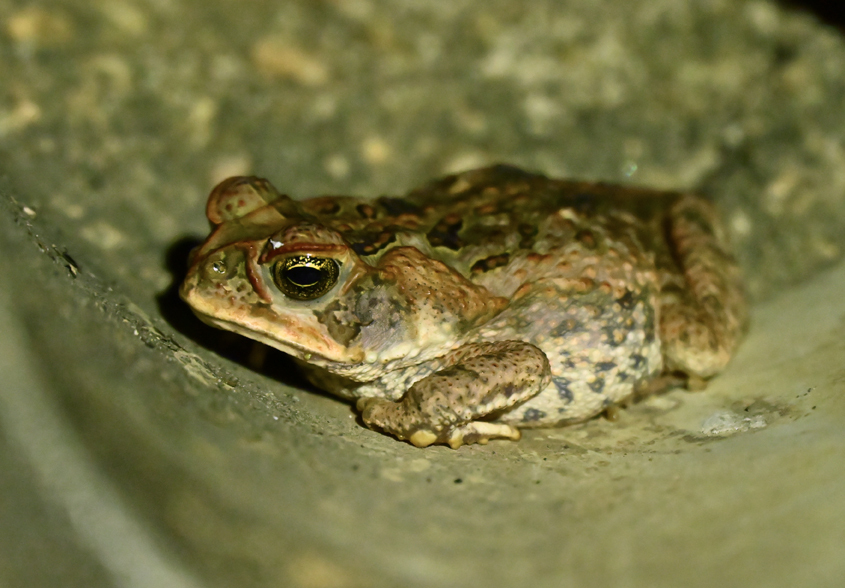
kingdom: Animalia
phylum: Chordata
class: Amphibia
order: Anura
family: Bufonidae
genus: Rhinella
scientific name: Rhinella marina
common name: Cane toad
